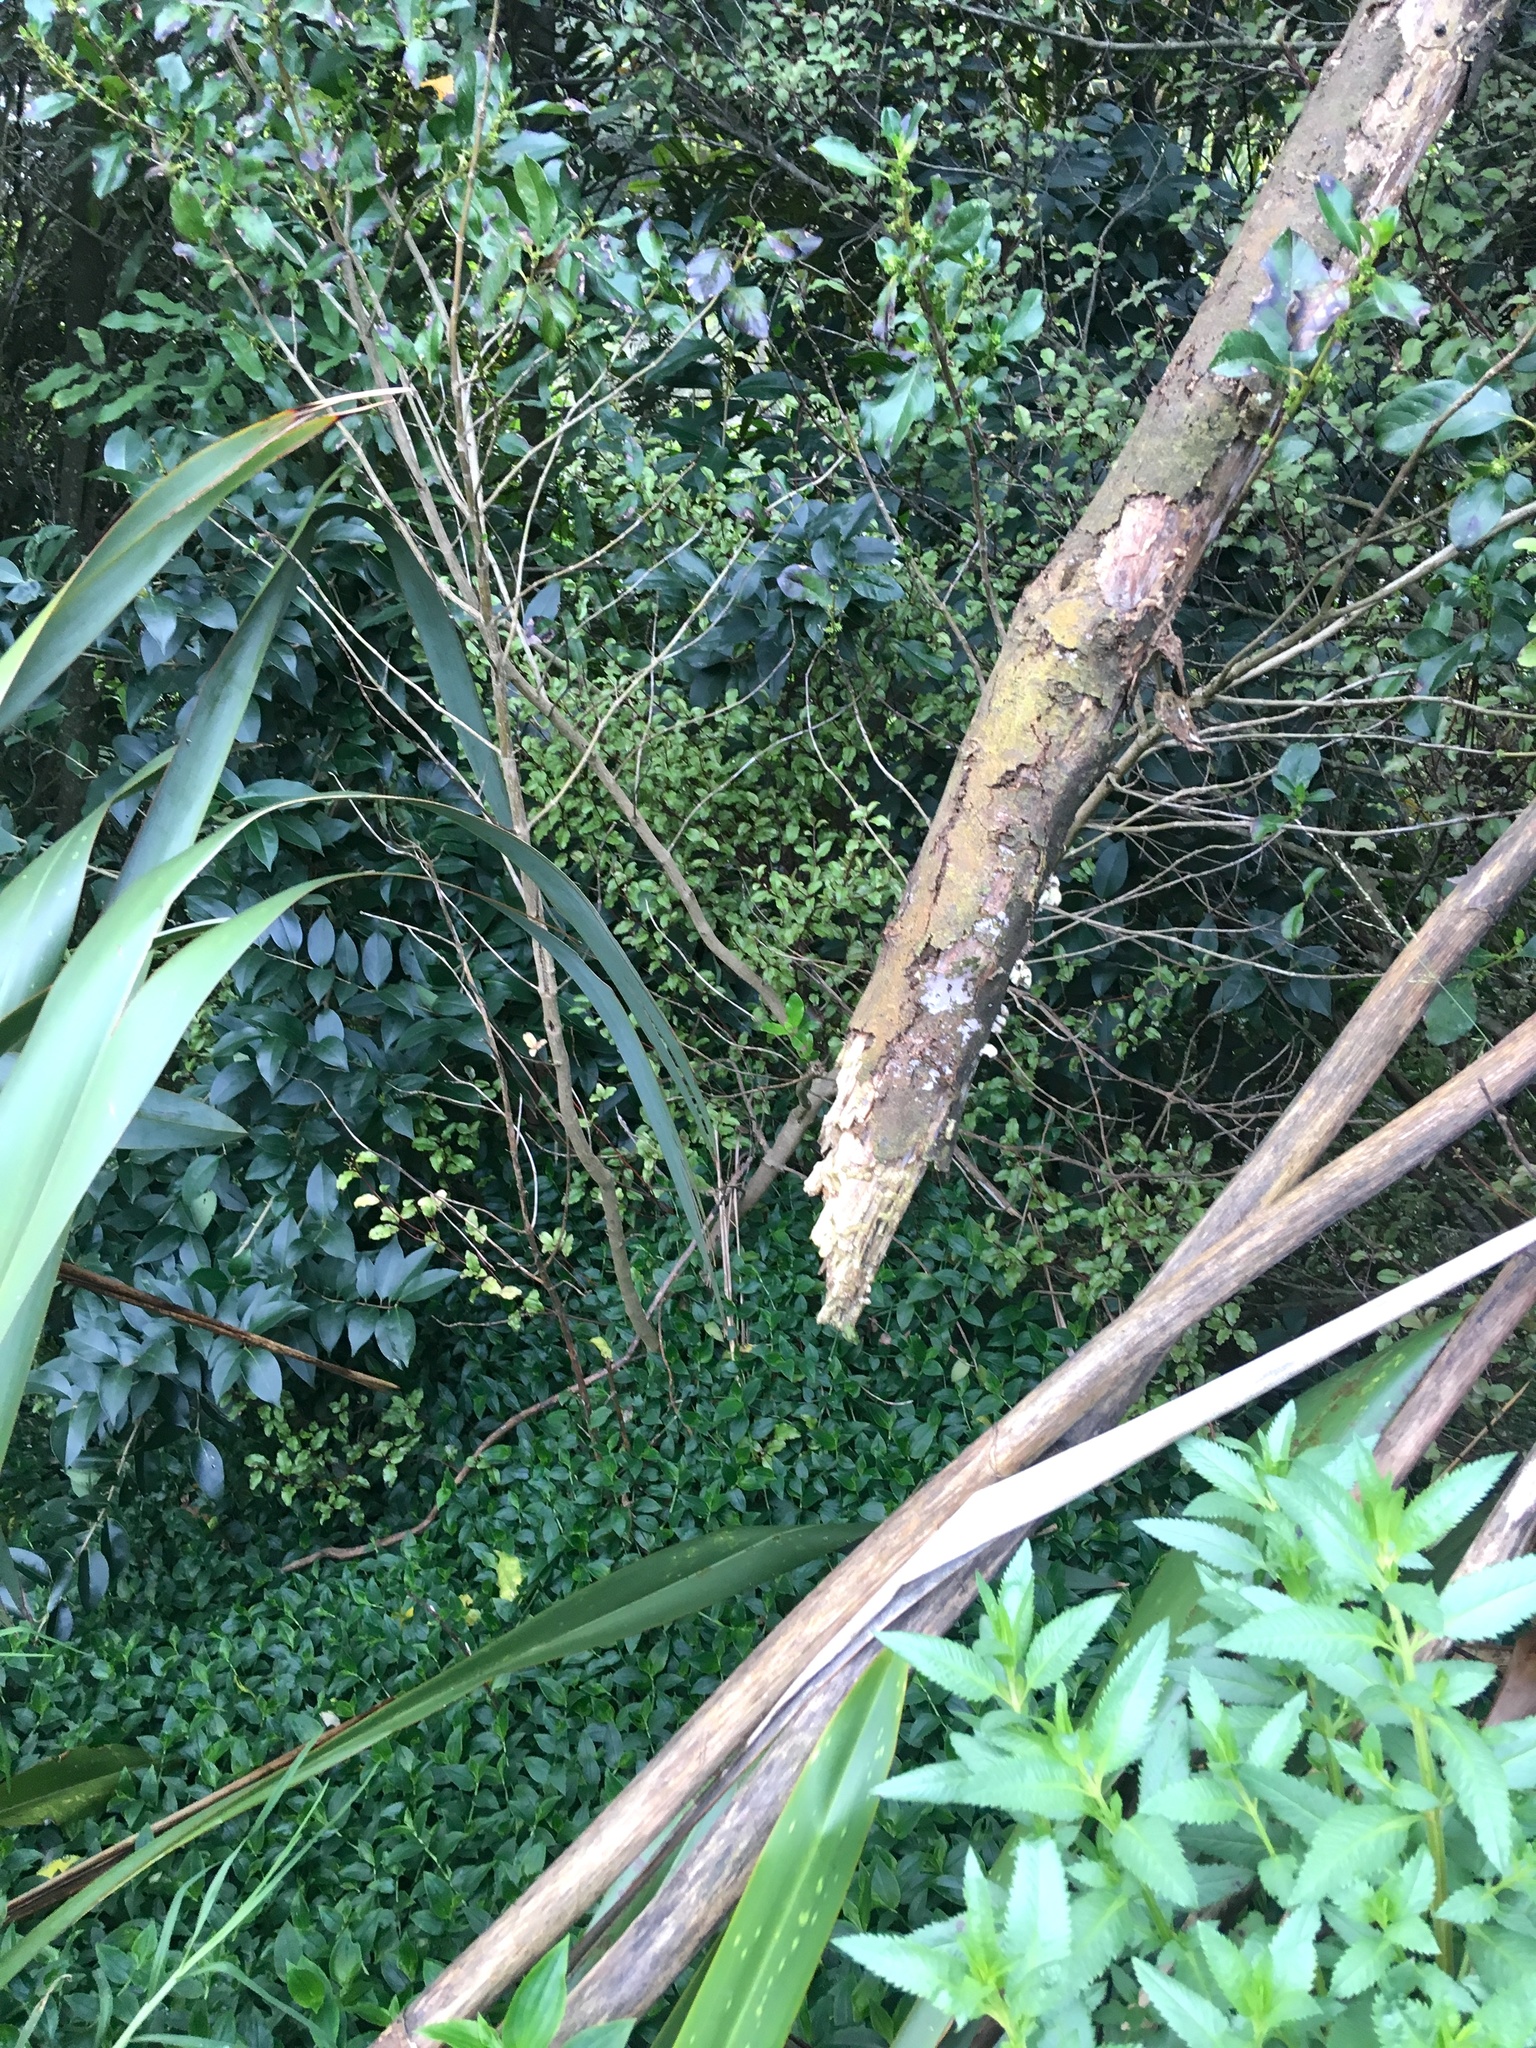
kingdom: Plantae
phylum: Tracheophyta
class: Magnoliopsida
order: Saxifragales
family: Haloragaceae
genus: Haloragis
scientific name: Haloragis erecta
